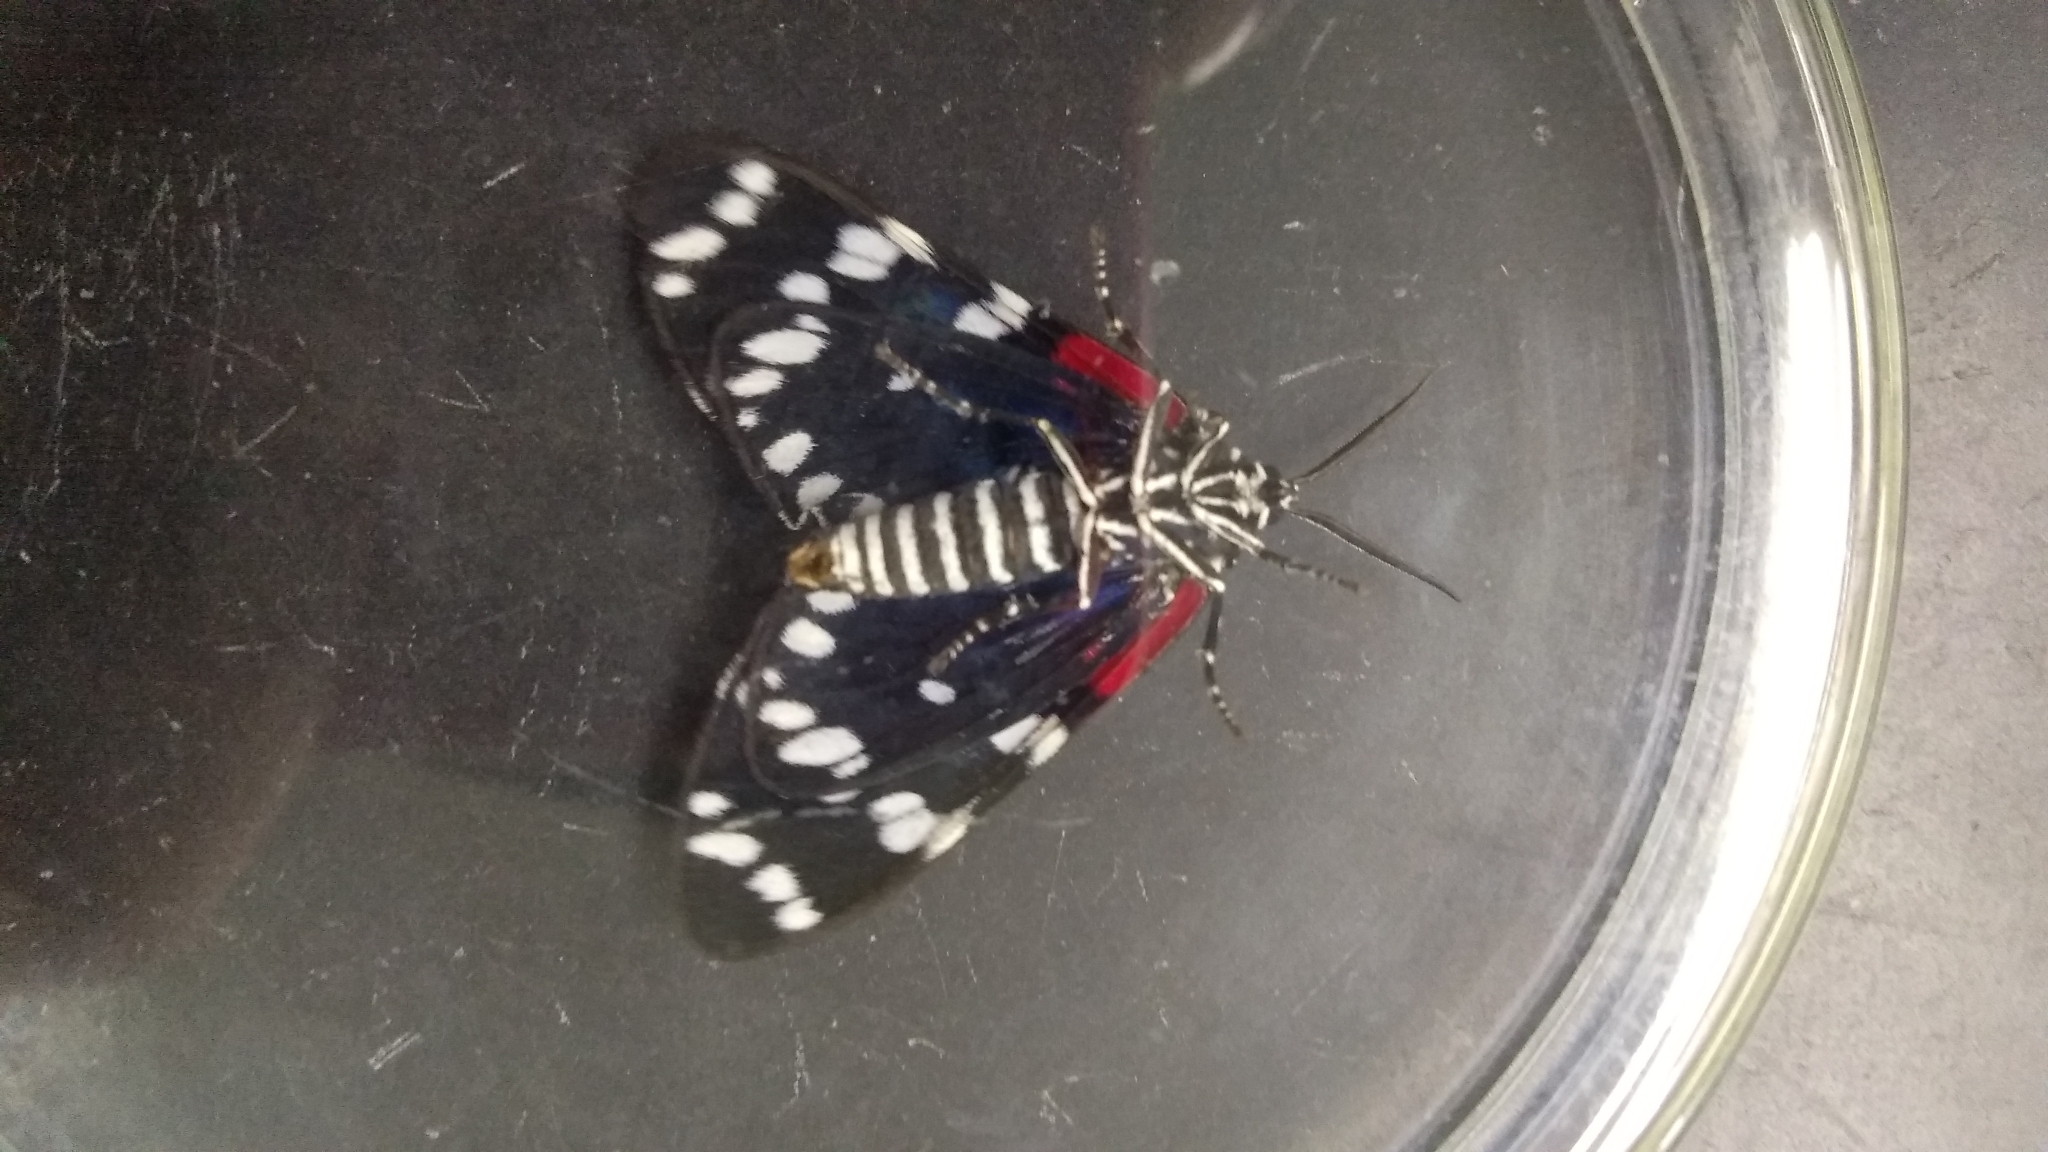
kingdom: Animalia
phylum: Arthropoda
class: Insecta
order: Lepidoptera
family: Erebidae
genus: Composia
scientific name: Composia fidelissima
